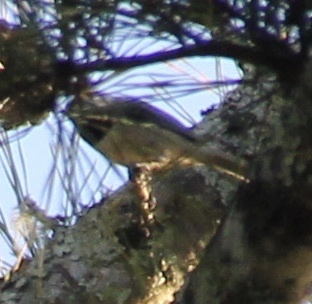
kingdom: Animalia
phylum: Chordata
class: Aves
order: Passeriformes
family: Paridae
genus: Poecile
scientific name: Poecile carolinensis
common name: Carolina chickadee
